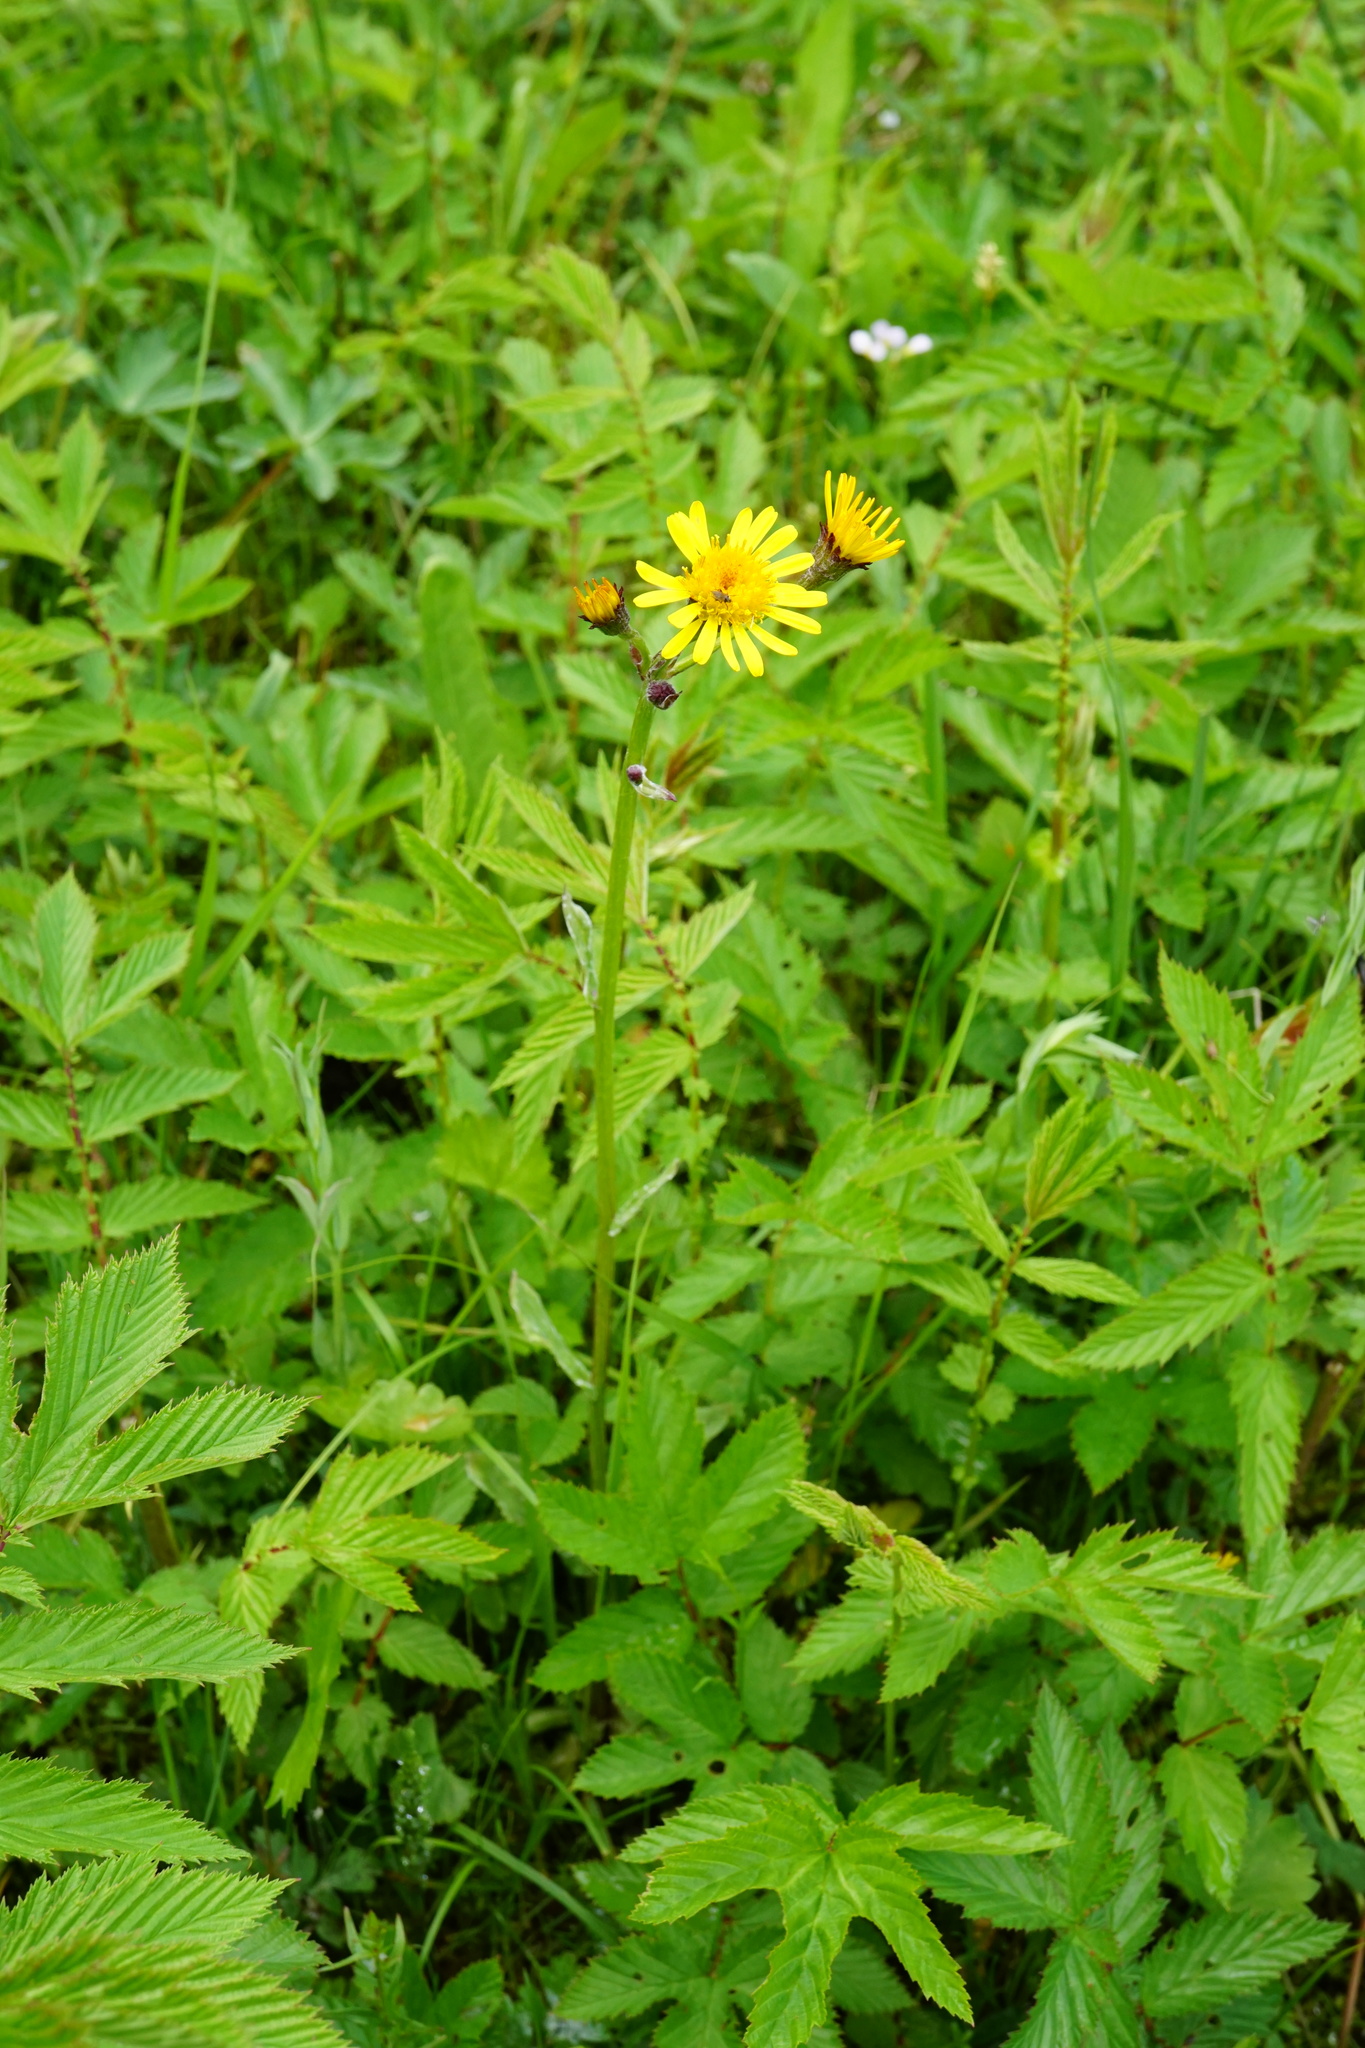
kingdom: Plantae
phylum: Tracheophyta
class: Magnoliopsida
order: Asterales
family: Asteraceae
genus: Tephroseris
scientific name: Tephroseris crispa
